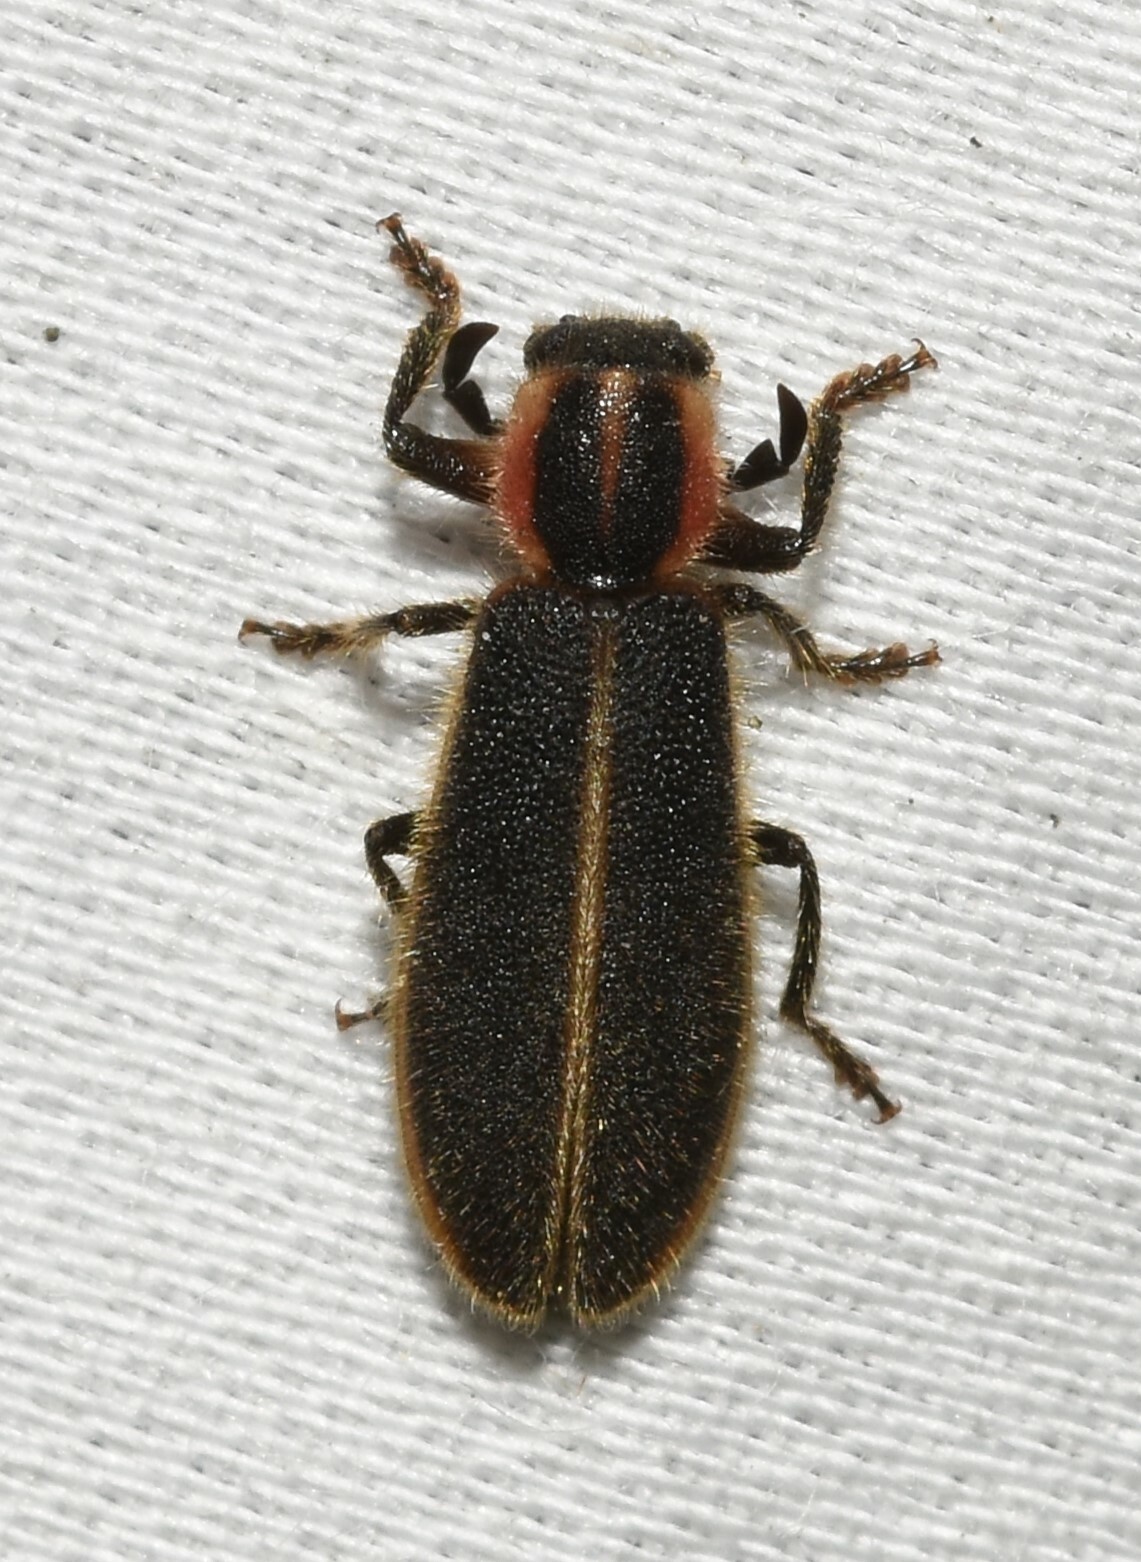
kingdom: Animalia
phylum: Arthropoda
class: Insecta
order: Coleoptera
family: Cleridae
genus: Chariessa
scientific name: Chariessa pilosa
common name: Pilose checkered beetle
